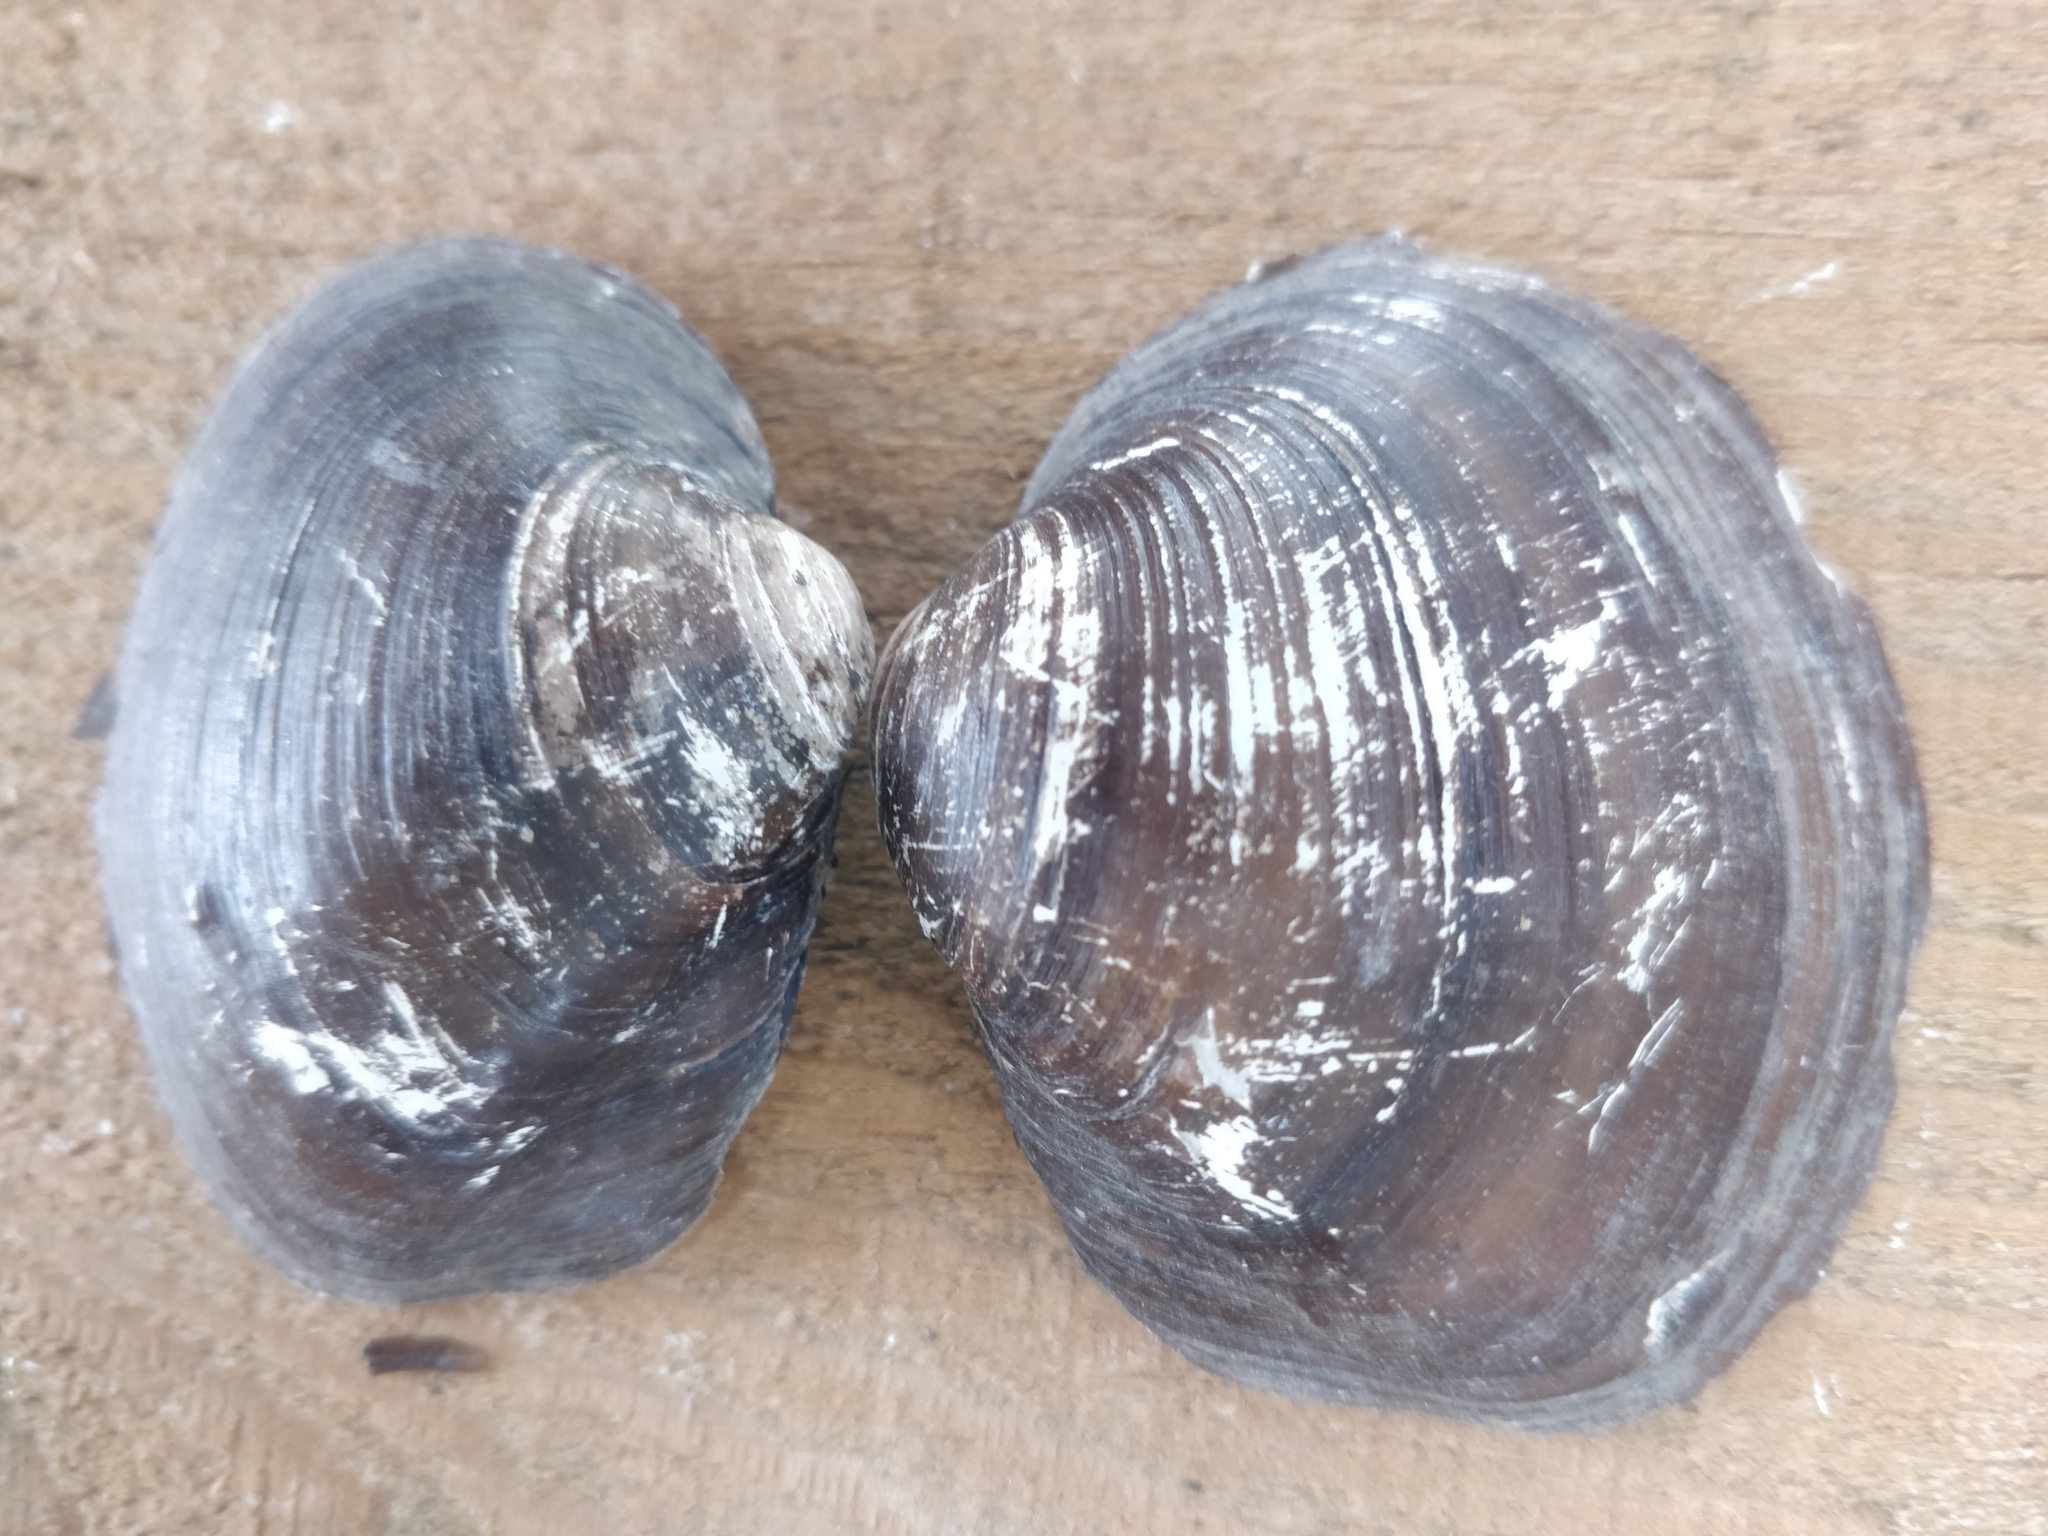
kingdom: Animalia
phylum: Mollusca
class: Bivalvia
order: Unionida
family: Unionidae
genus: Cyclonaias
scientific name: Cyclonaias pustulosa
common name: Pimpleback
